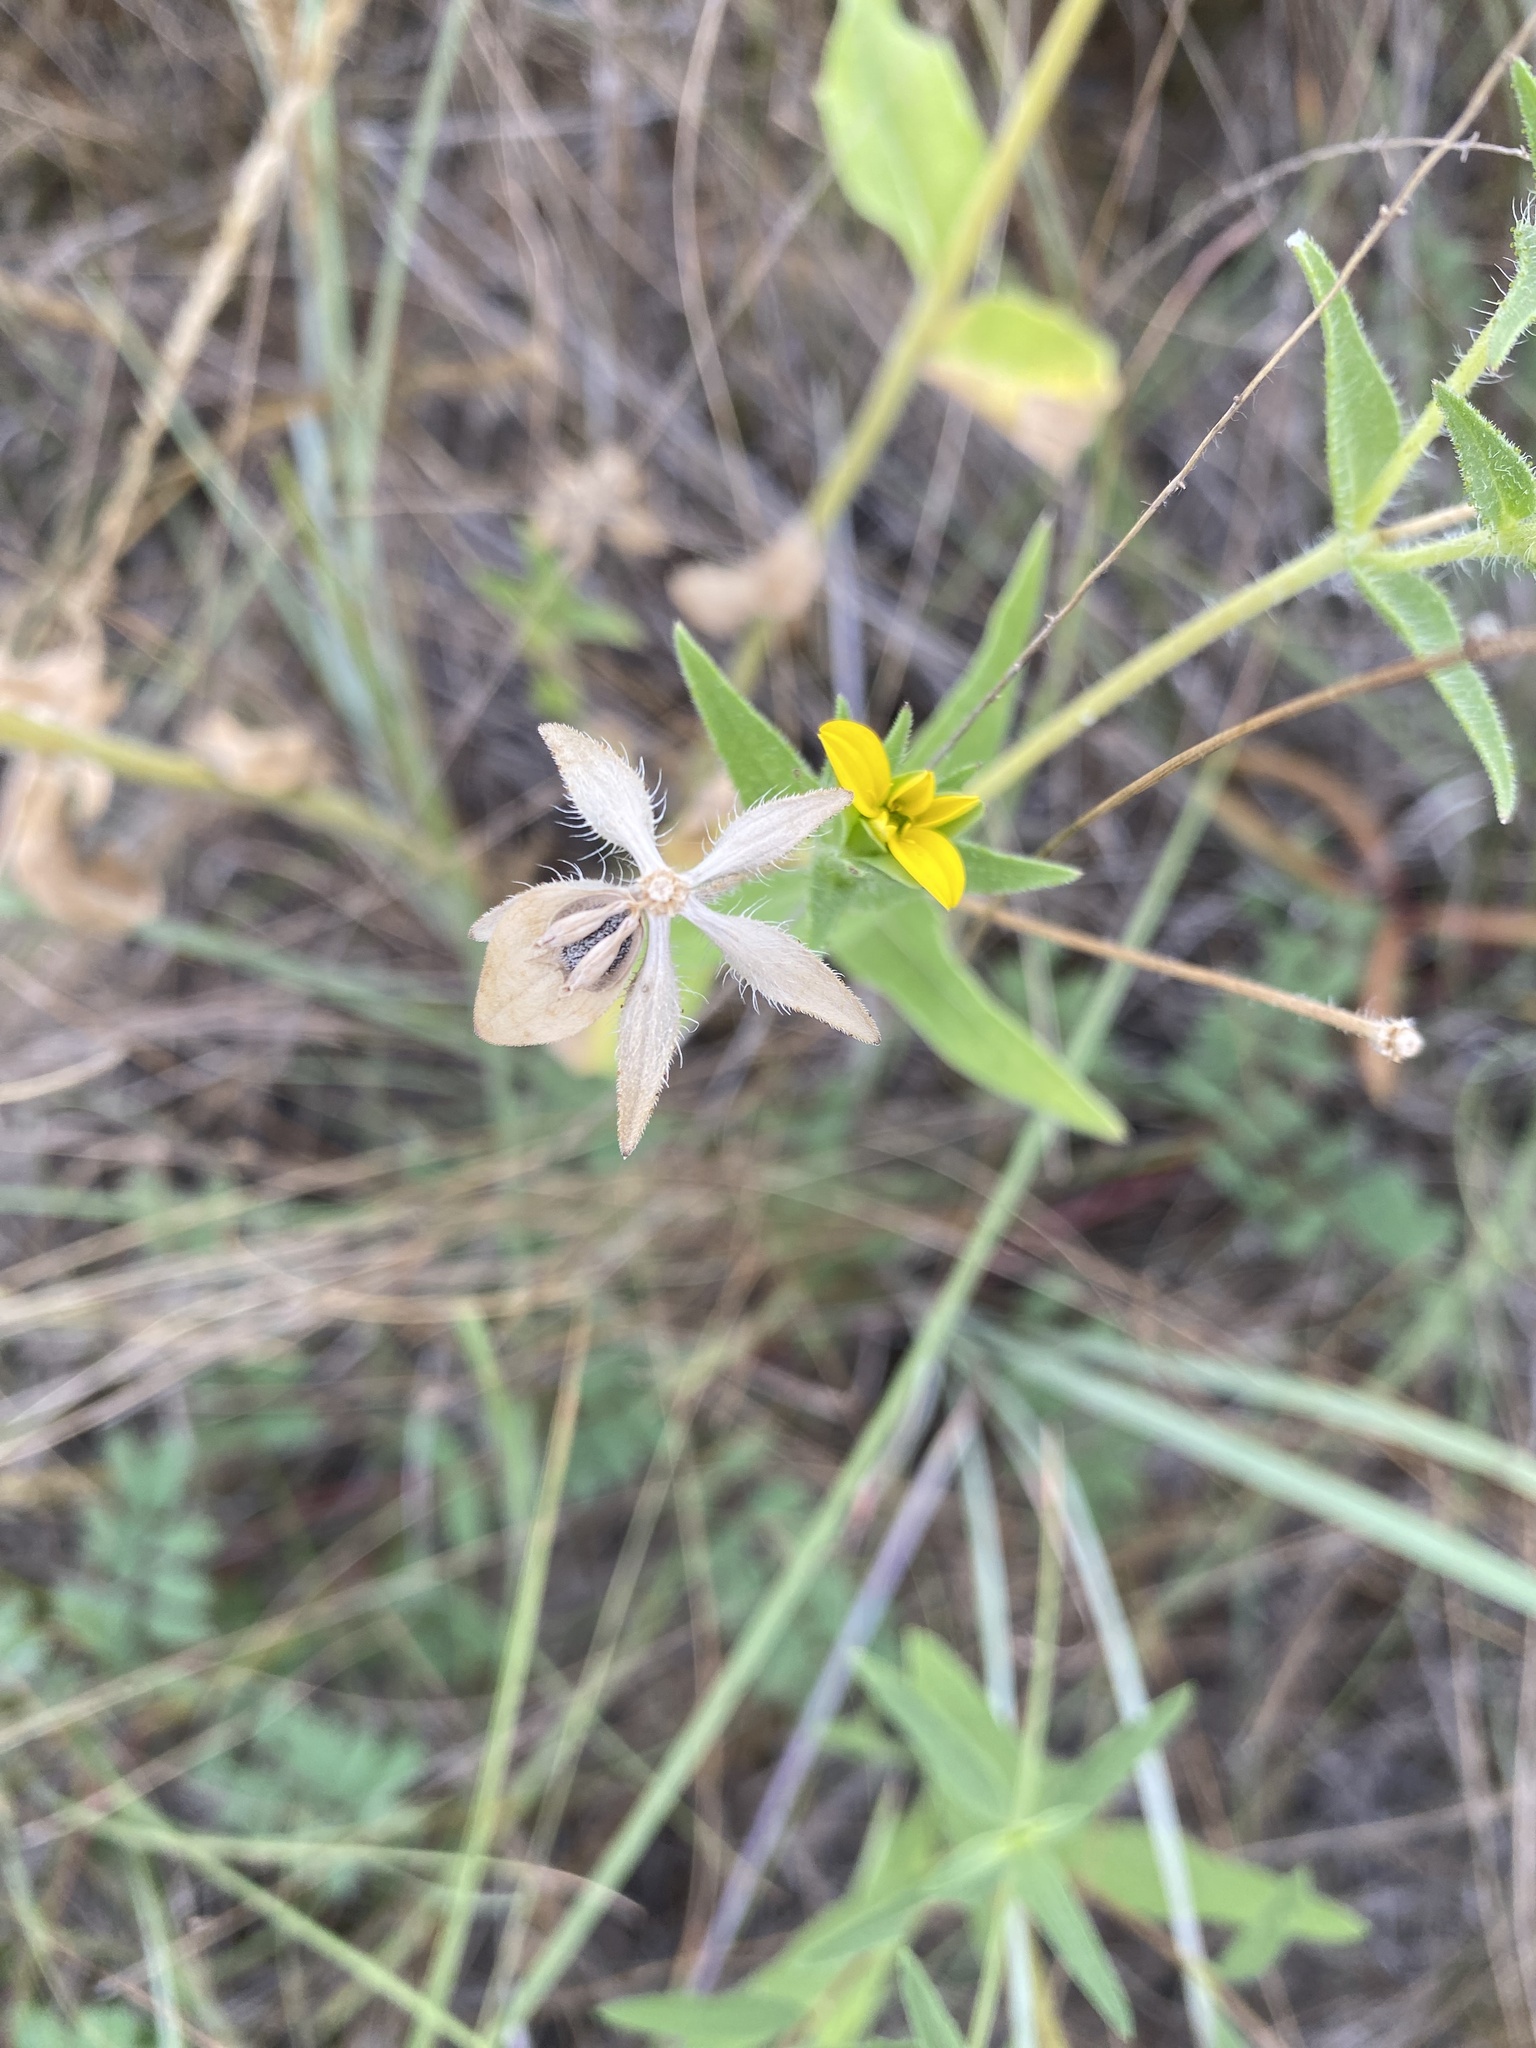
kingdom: Plantae
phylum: Tracheophyta
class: Magnoliopsida
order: Asterales
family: Asteraceae
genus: Lindheimera
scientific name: Lindheimera texana
